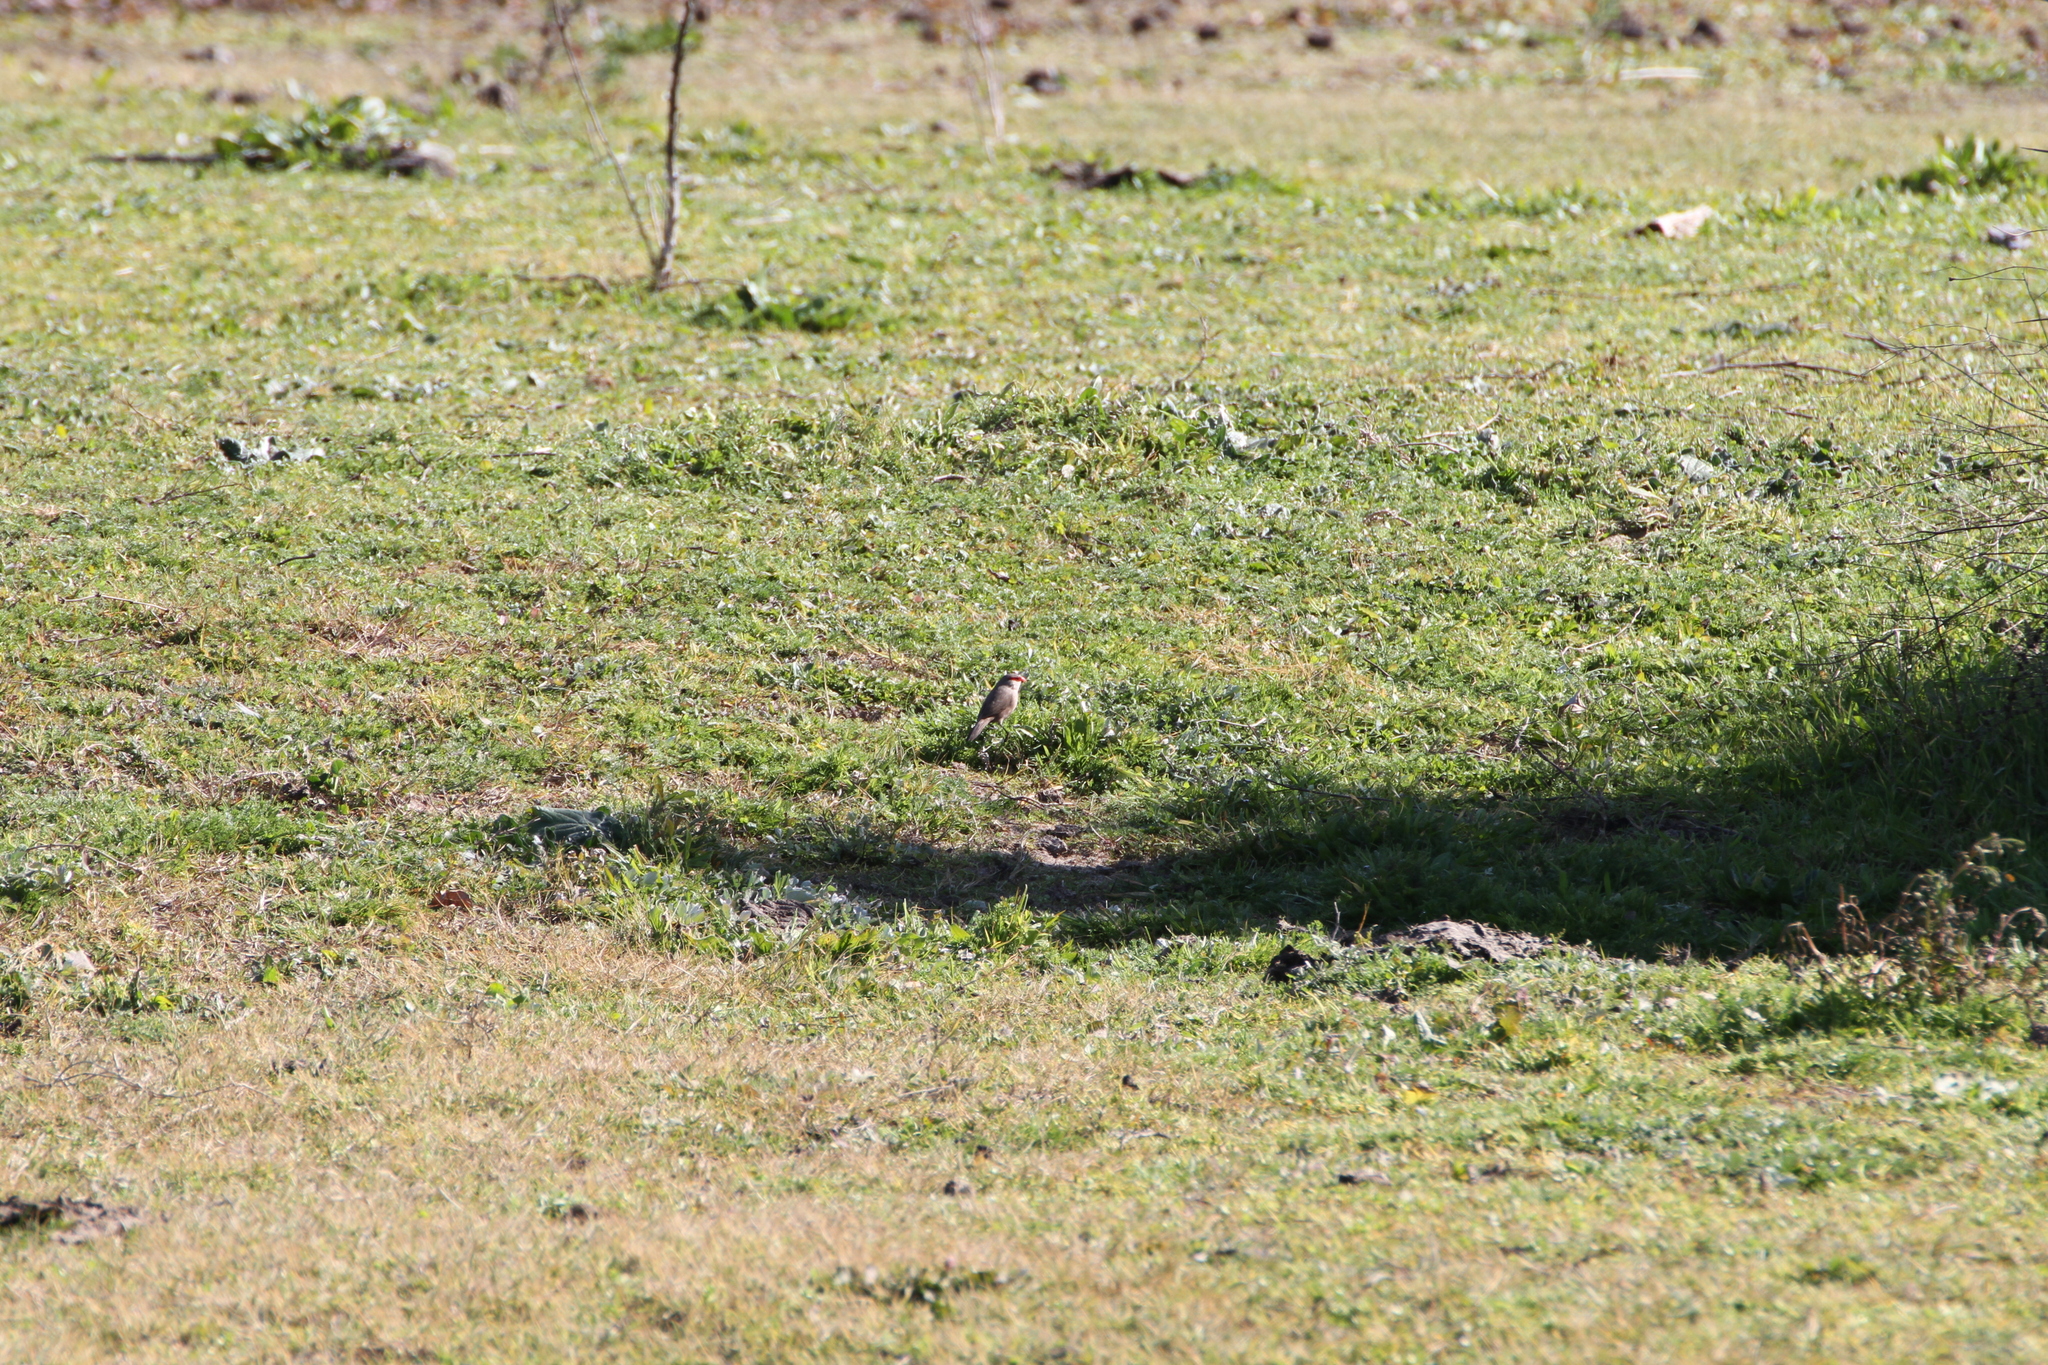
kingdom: Animalia
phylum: Chordata
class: Aves
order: Passeriformes
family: Estrildidae
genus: Estrilda
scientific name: Estrilda astrild
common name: Common waxbill
